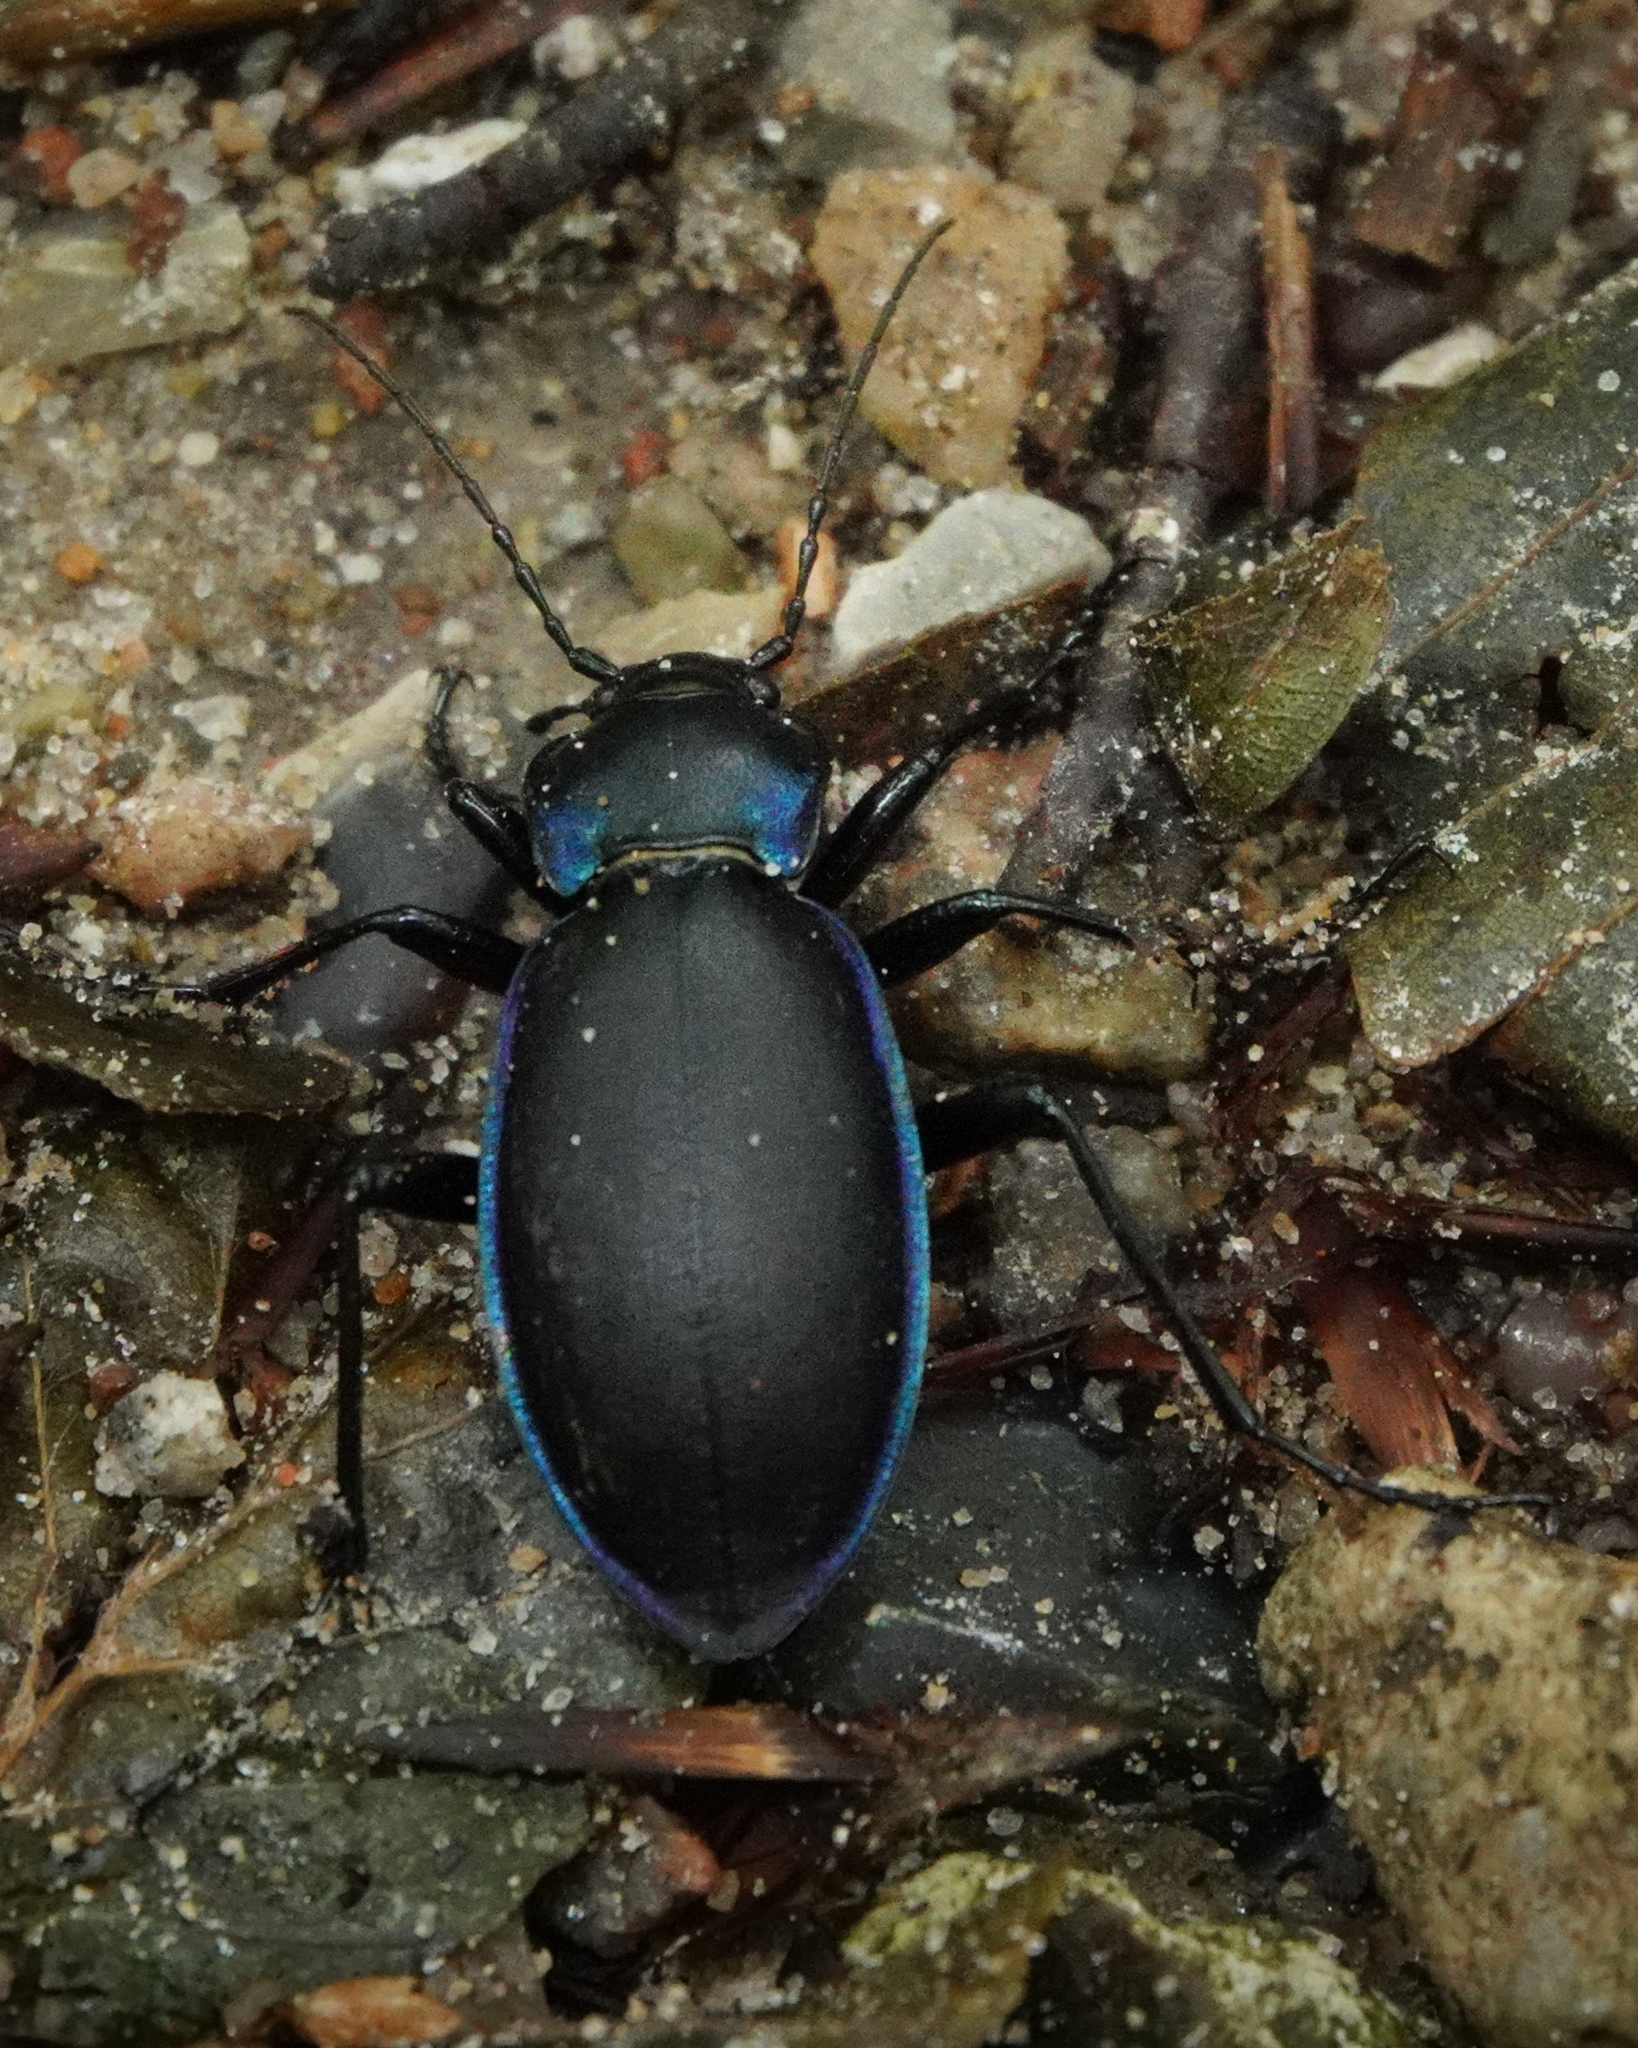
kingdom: Animalia
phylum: Arthropoda
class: Insecta
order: Coleoptera
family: Carabidae
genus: Carabus
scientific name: Carabus violaceus
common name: Violet ground beetle
